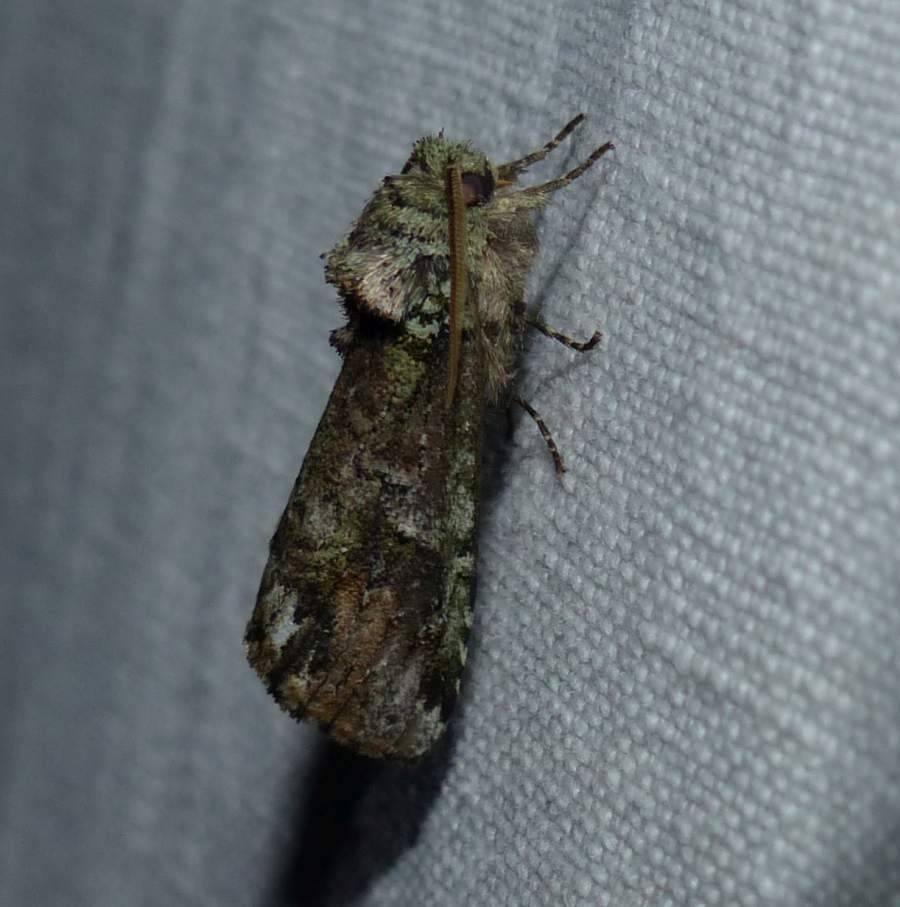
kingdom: Animalia
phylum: Arthropoda
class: Insecta
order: Lepidoptera
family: Notodontidae
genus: Schizura
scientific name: Schizura
